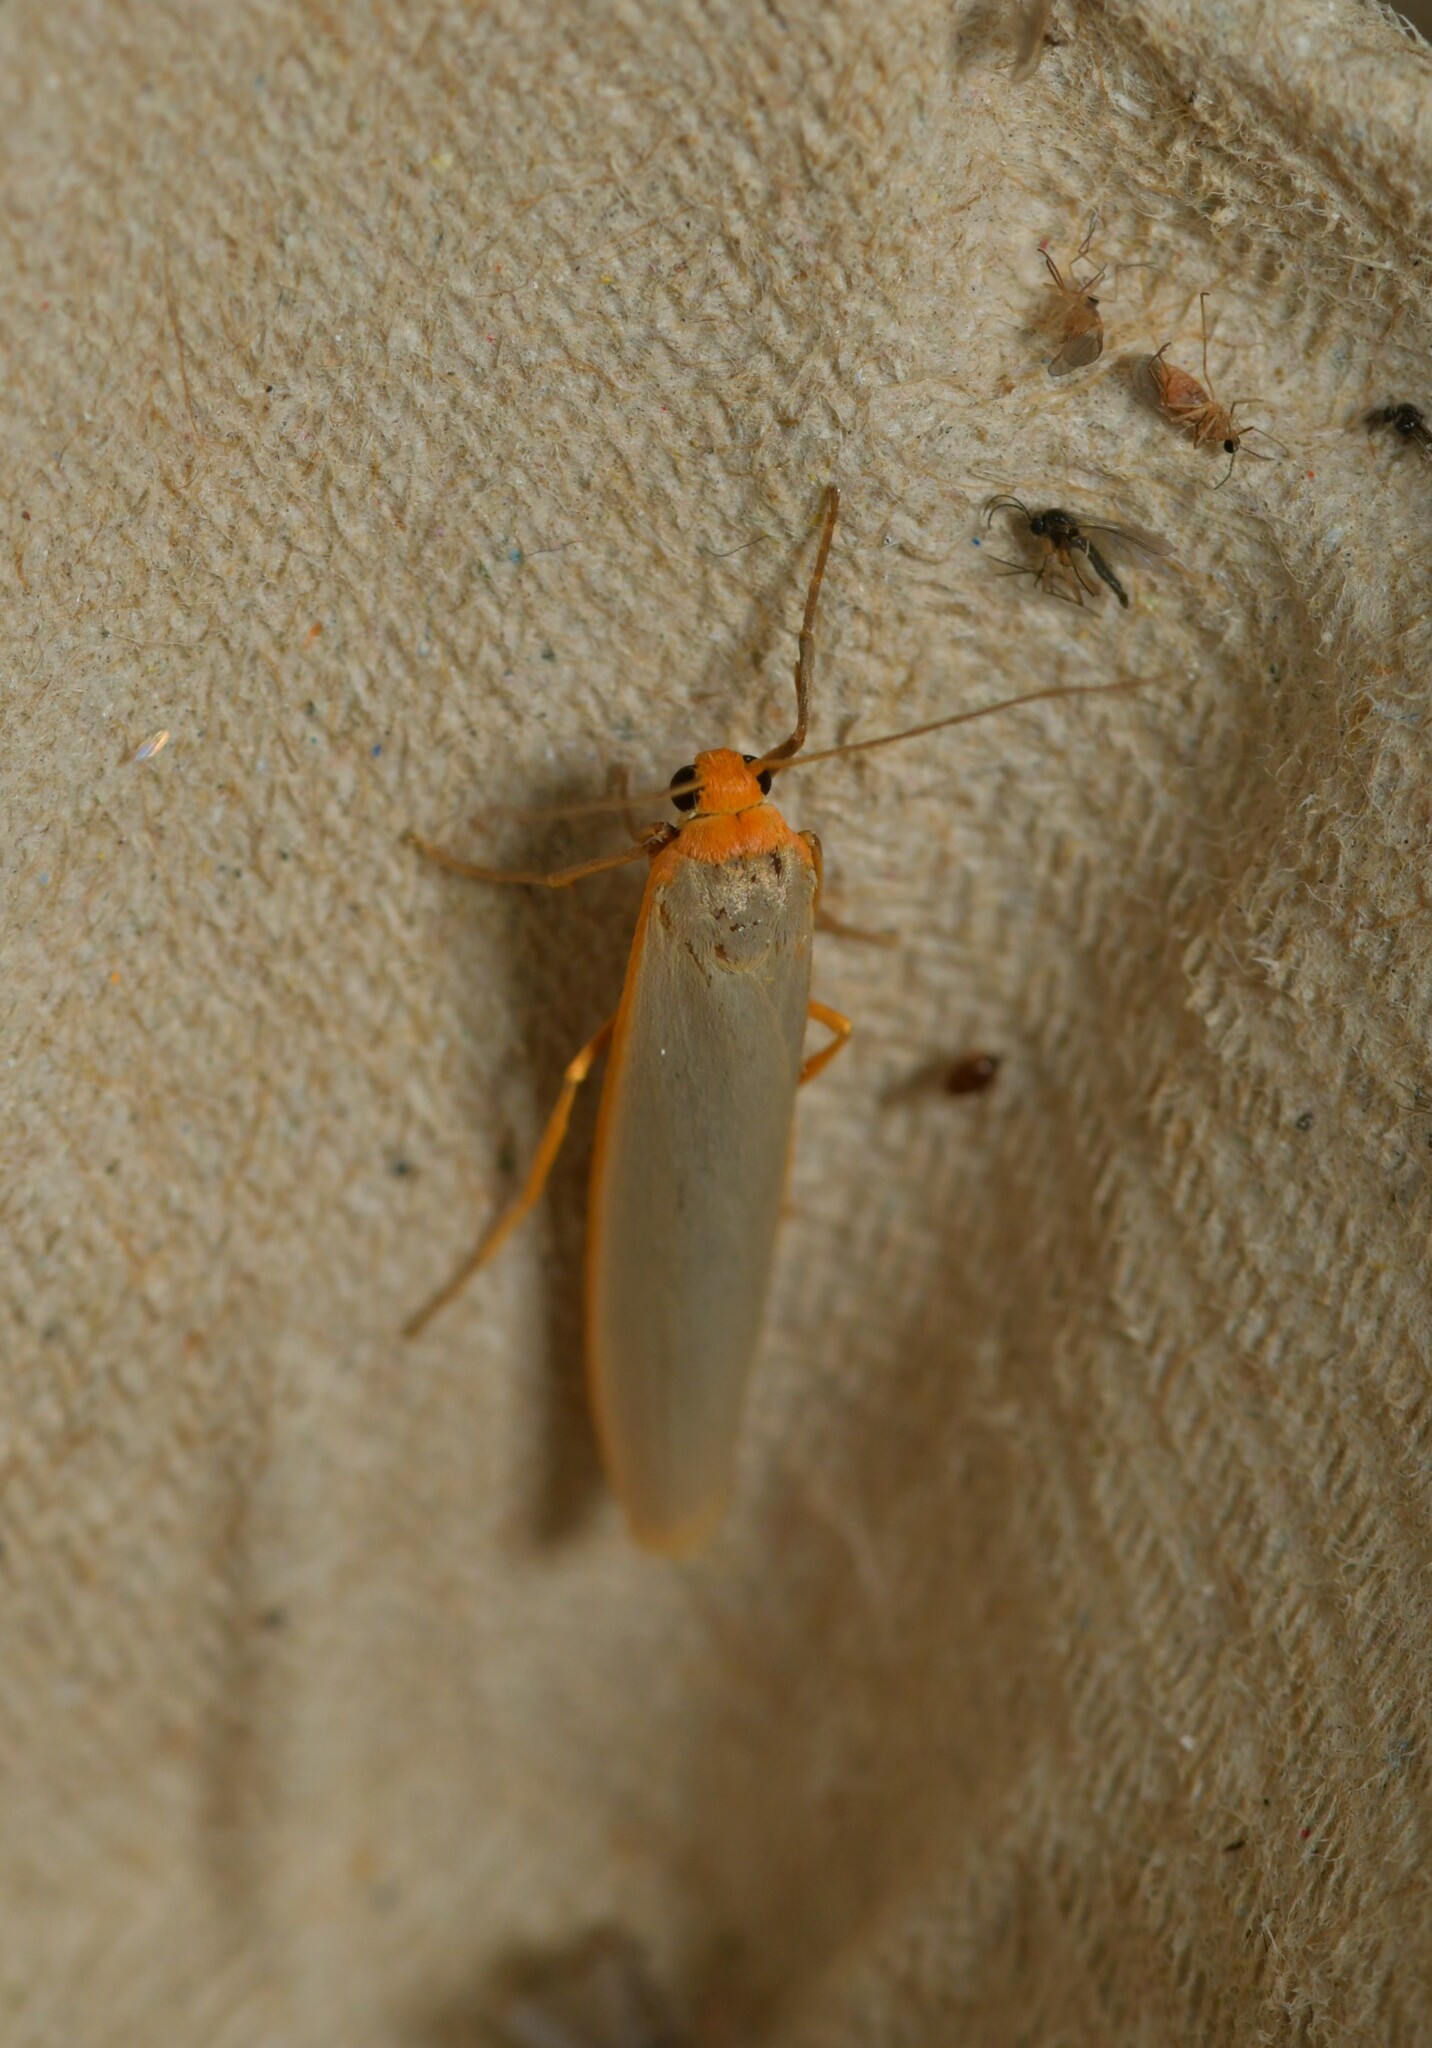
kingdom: Animalia
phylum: Arthropoda
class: Insecta
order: Lepidoptera
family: Erebidae
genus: Eilema
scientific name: Eilema caniola
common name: Hoary footman
